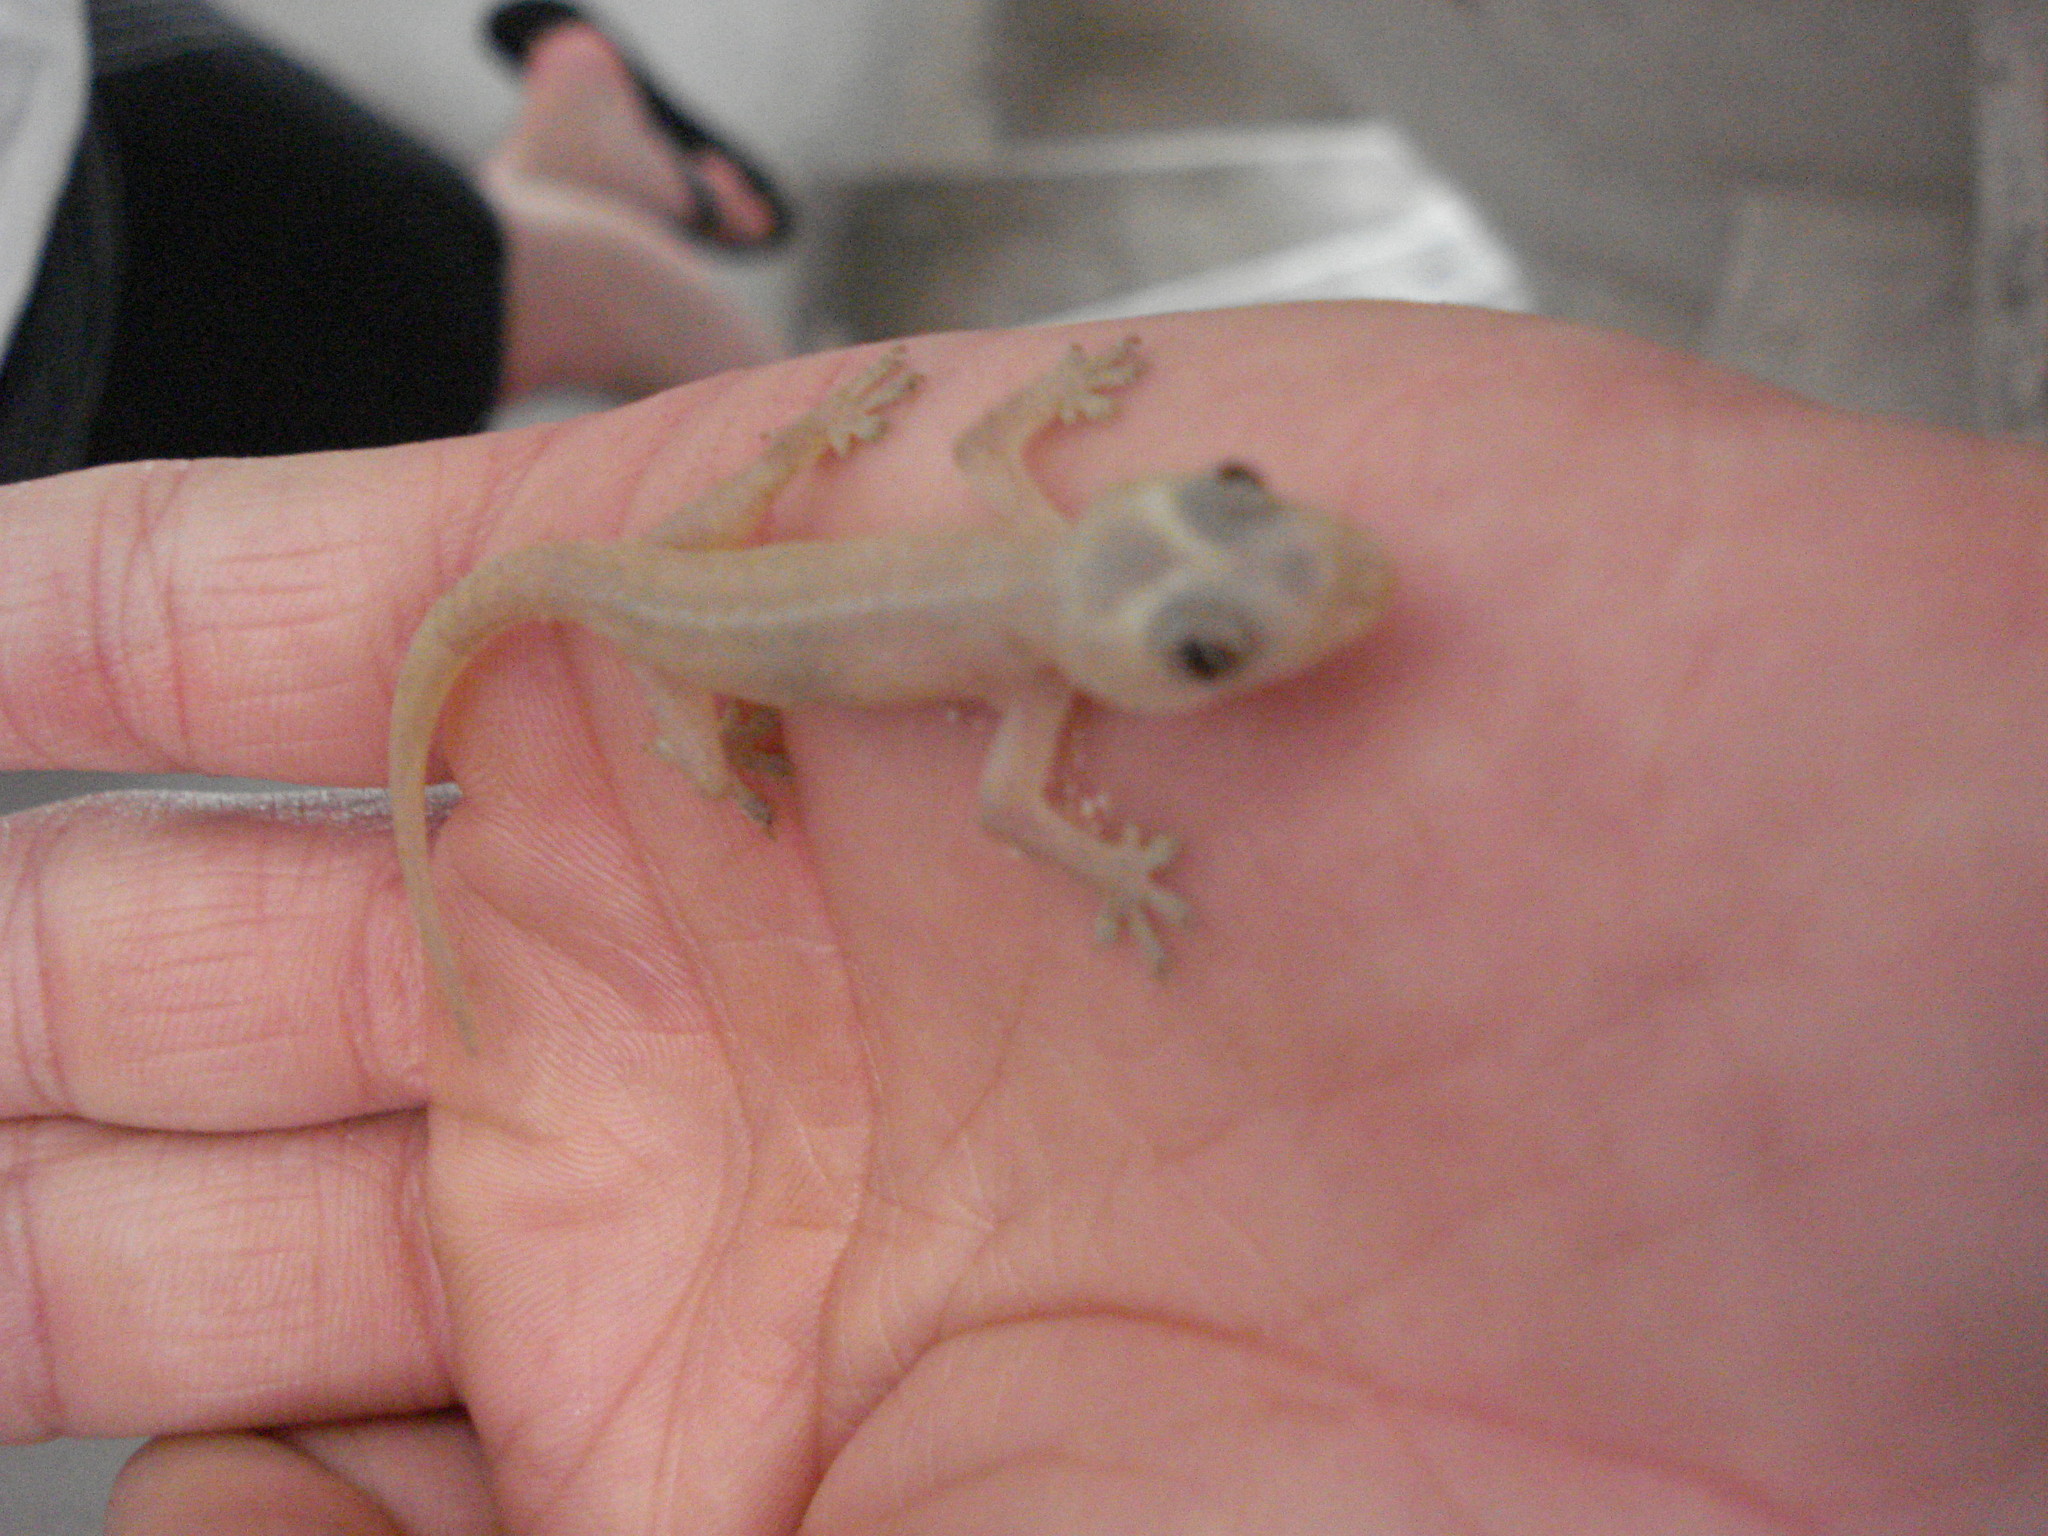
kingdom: Animalia
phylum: Chordata
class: Squamata
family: Gekkonidae
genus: Hemidactylus
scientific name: Hemidactylus frenatus
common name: Common house gecko
